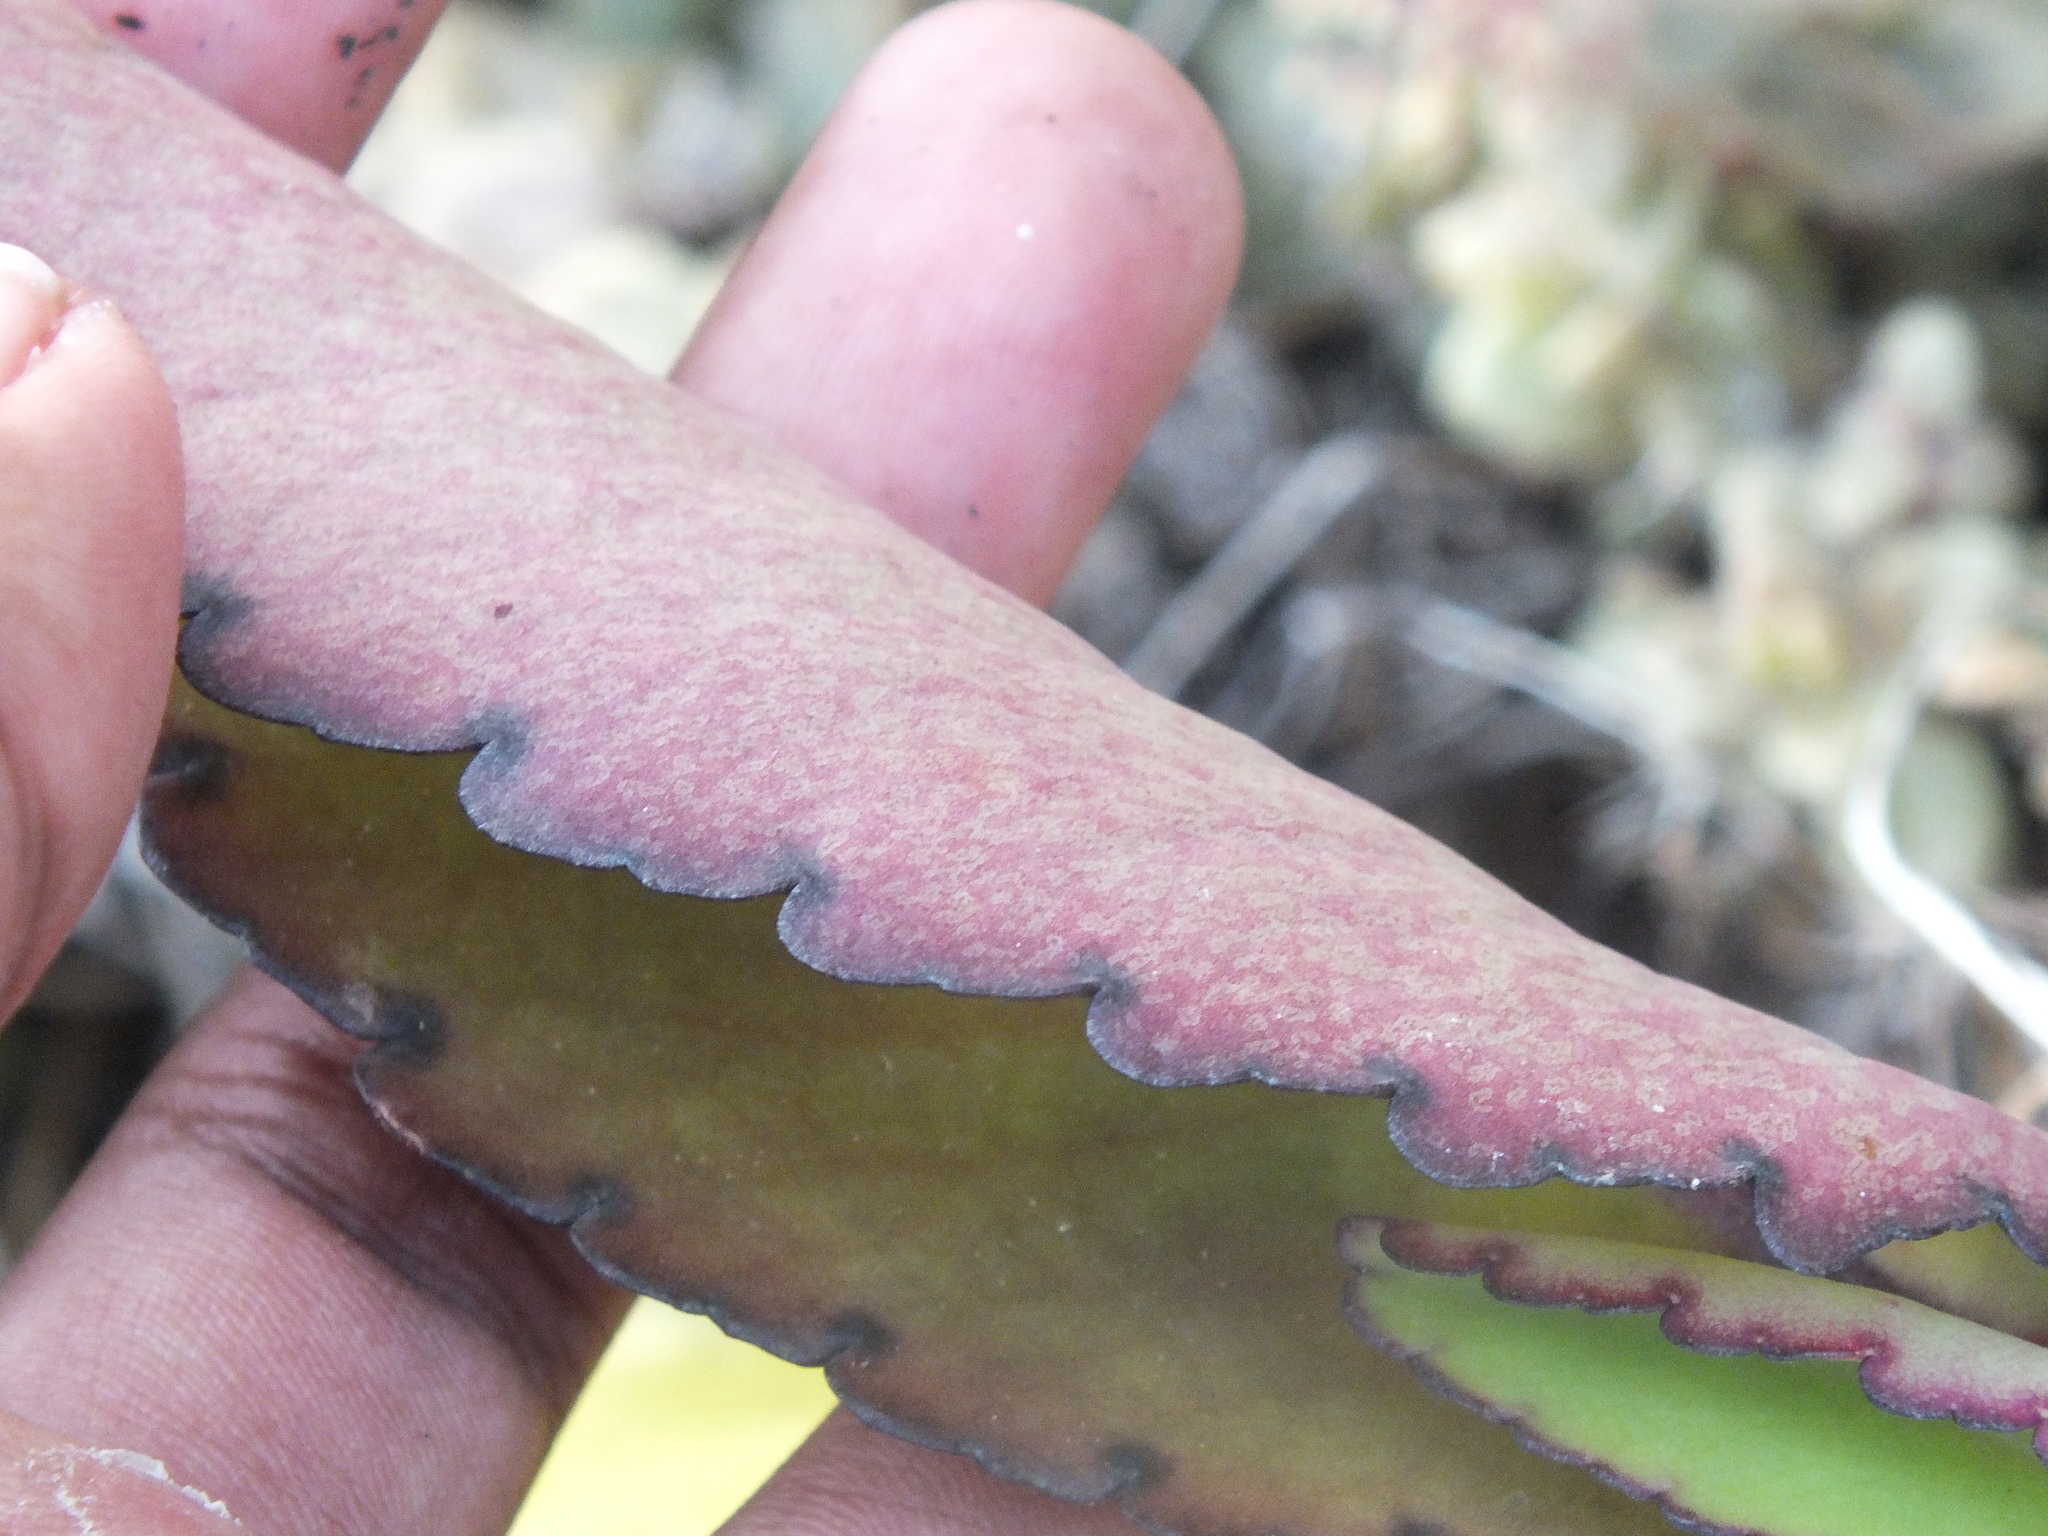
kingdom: Plantae
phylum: Tracheophyta
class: Magnoliopsida
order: Saxifragales
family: Crassulaceae
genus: Kalanchoe
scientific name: Kalanchoe pinnata
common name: Cathedral bells
